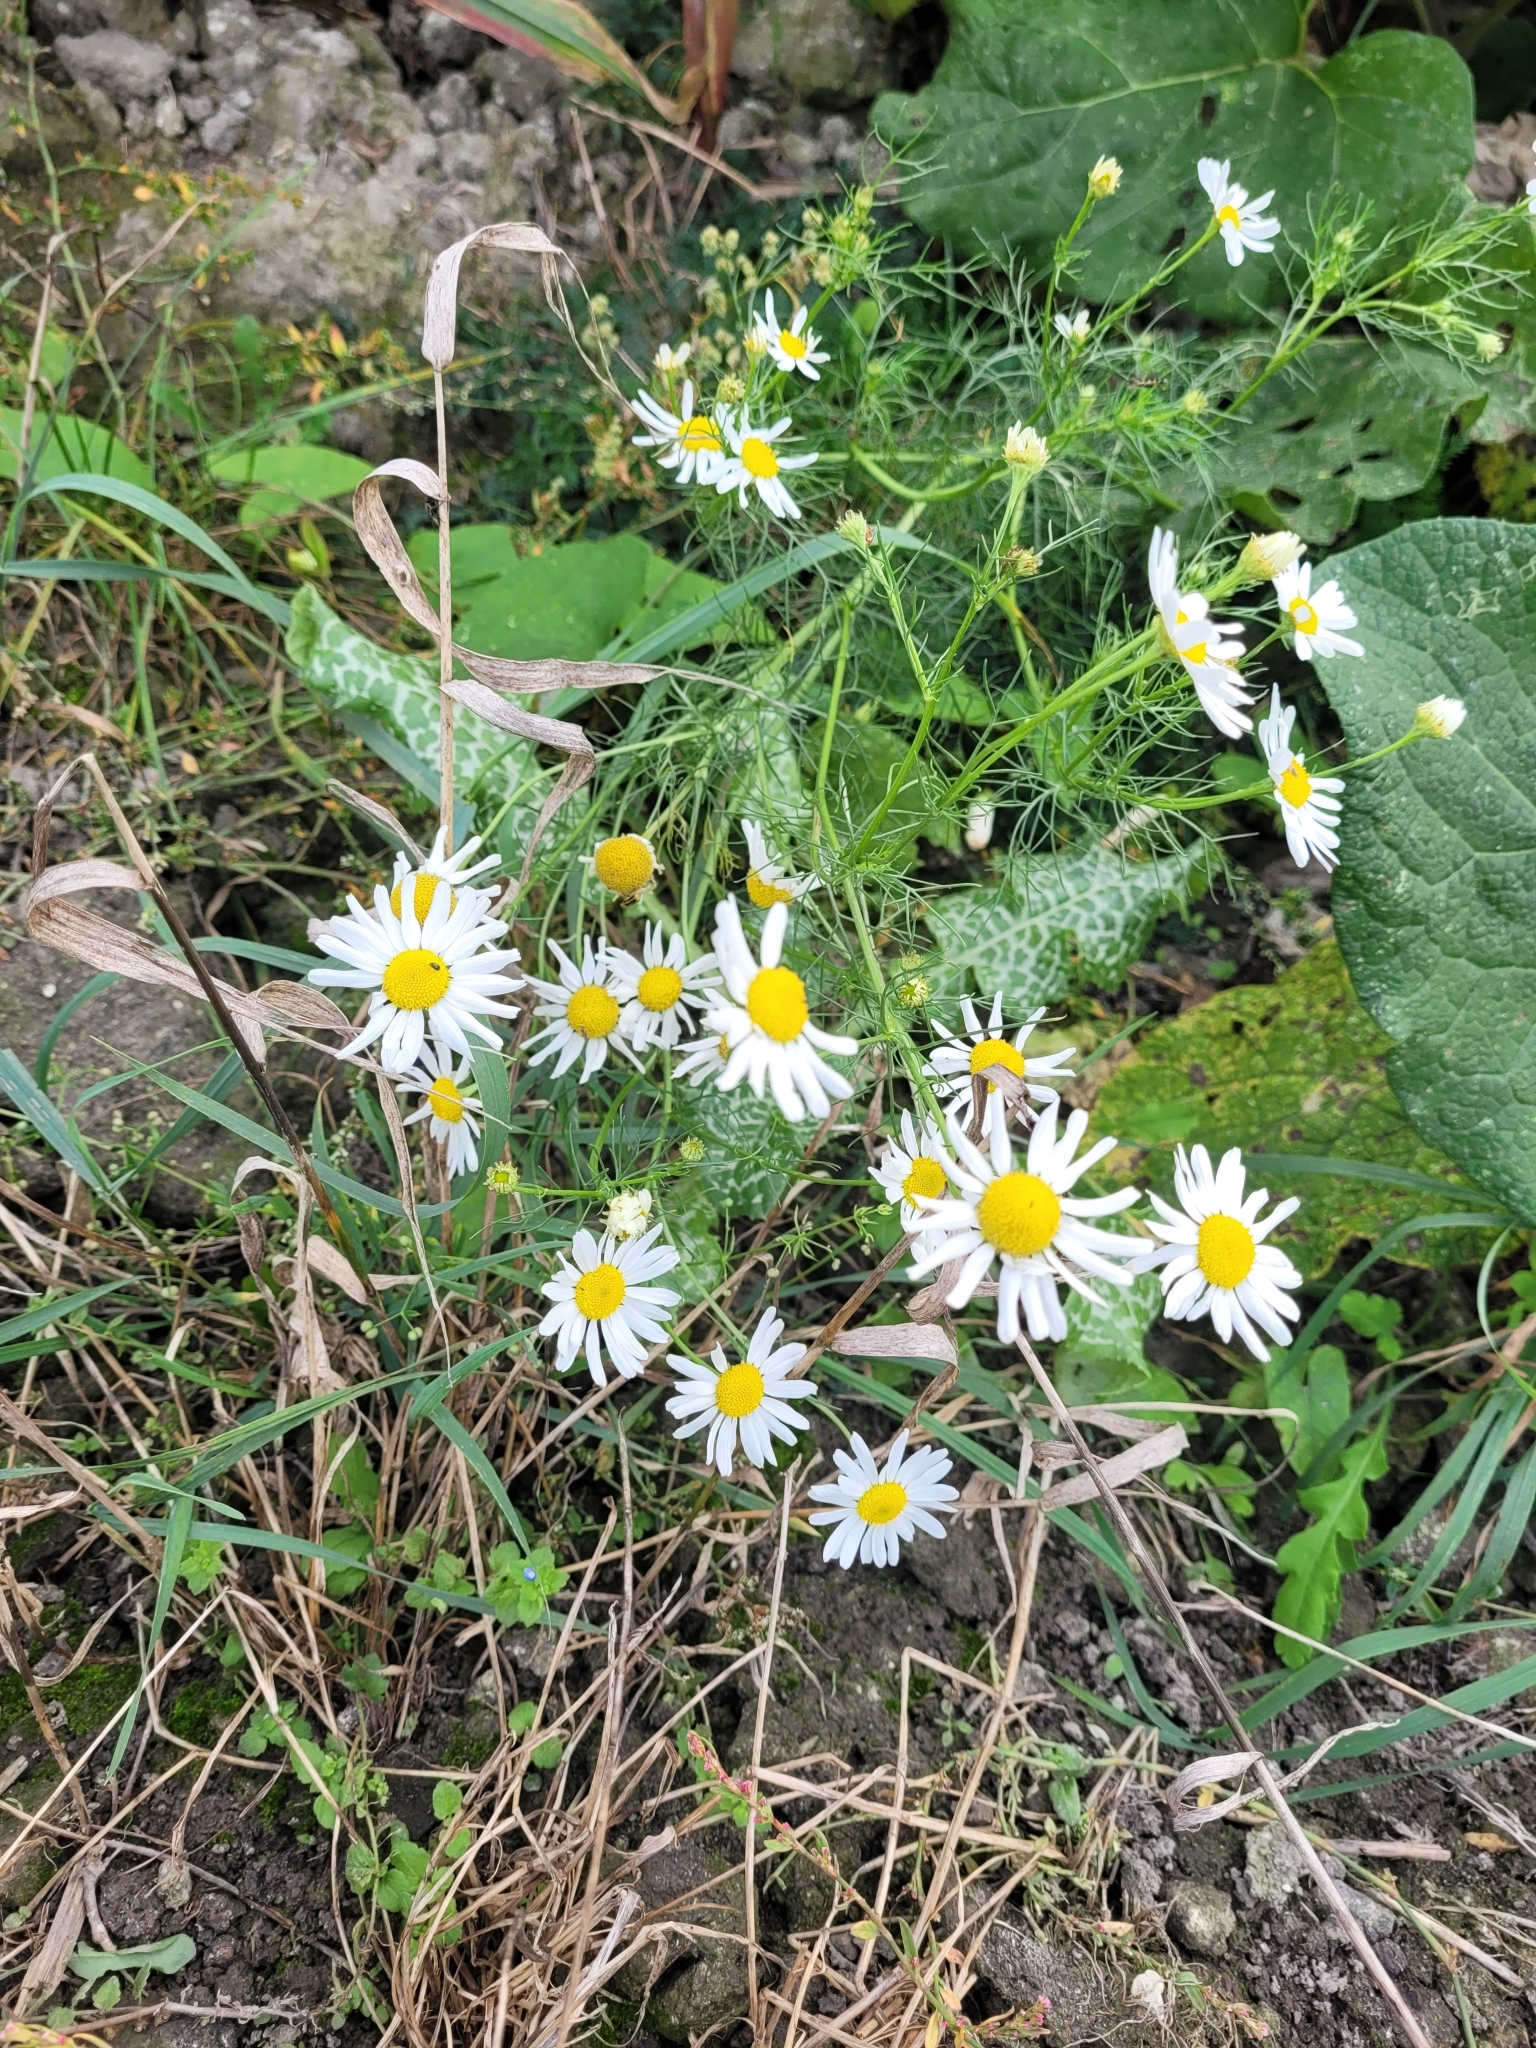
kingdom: Plantae
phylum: Tracheophyta
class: Magnoliopsida
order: Asterales
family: Asteraceae
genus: Tripleurospermum
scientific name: Tripleurospermum inodorum
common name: Scentless mayweed
